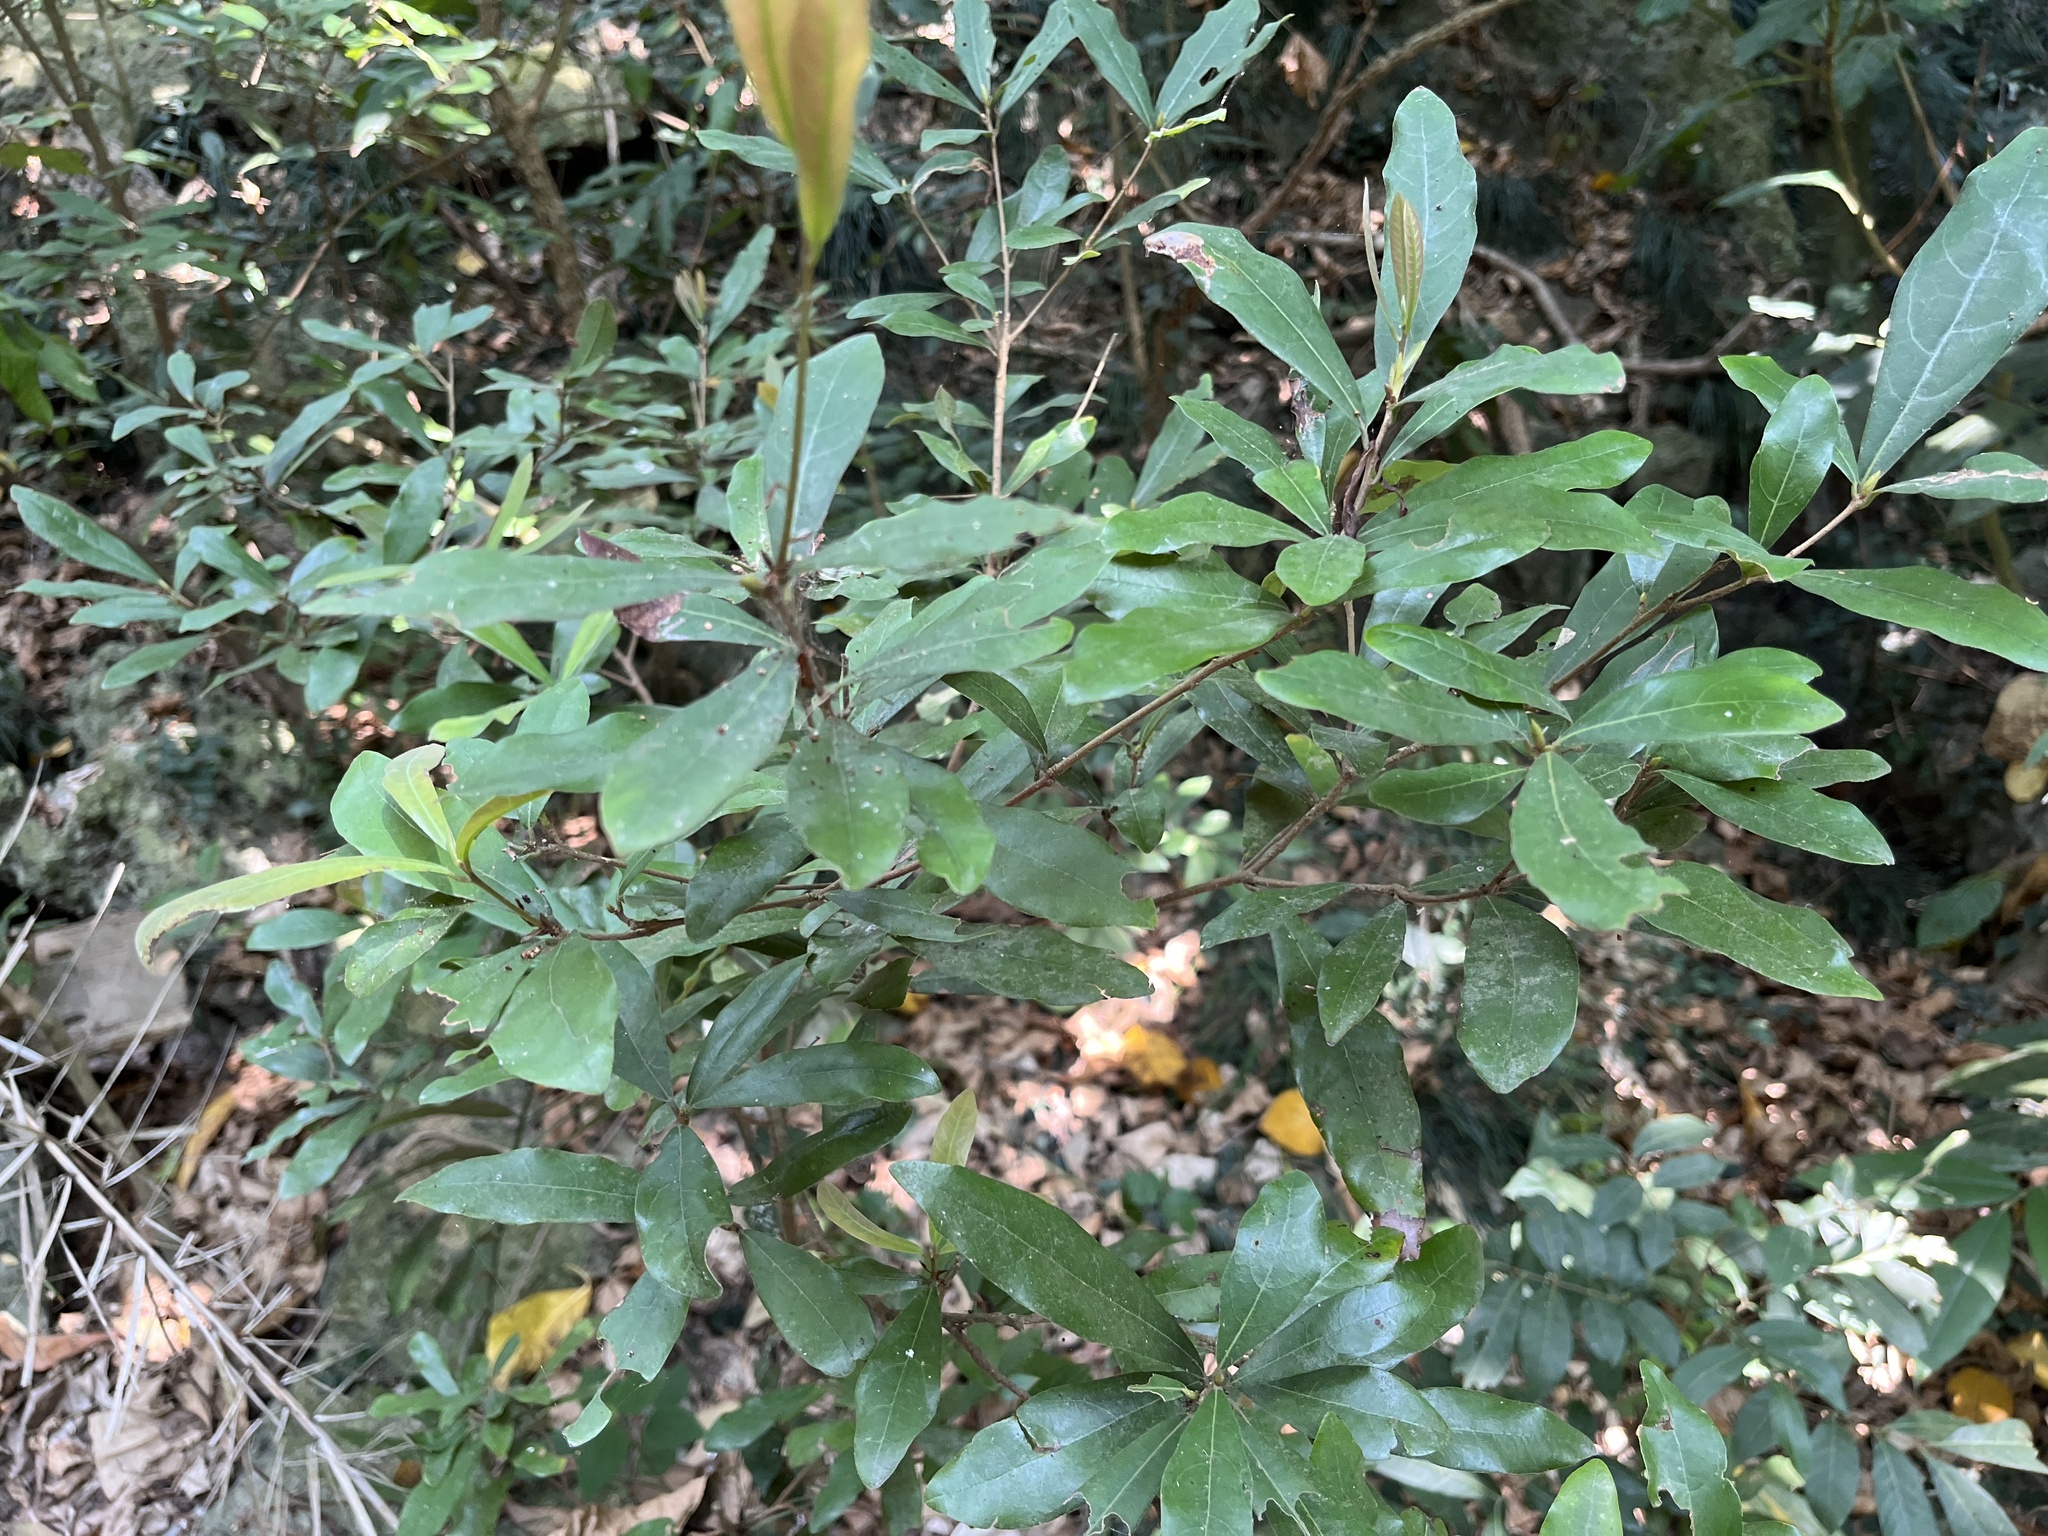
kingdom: Plantae
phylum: Tracheophyta
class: Magnoliopsida
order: Laurales
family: Lauraceae
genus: Litsea
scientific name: Litsea hypophaea
